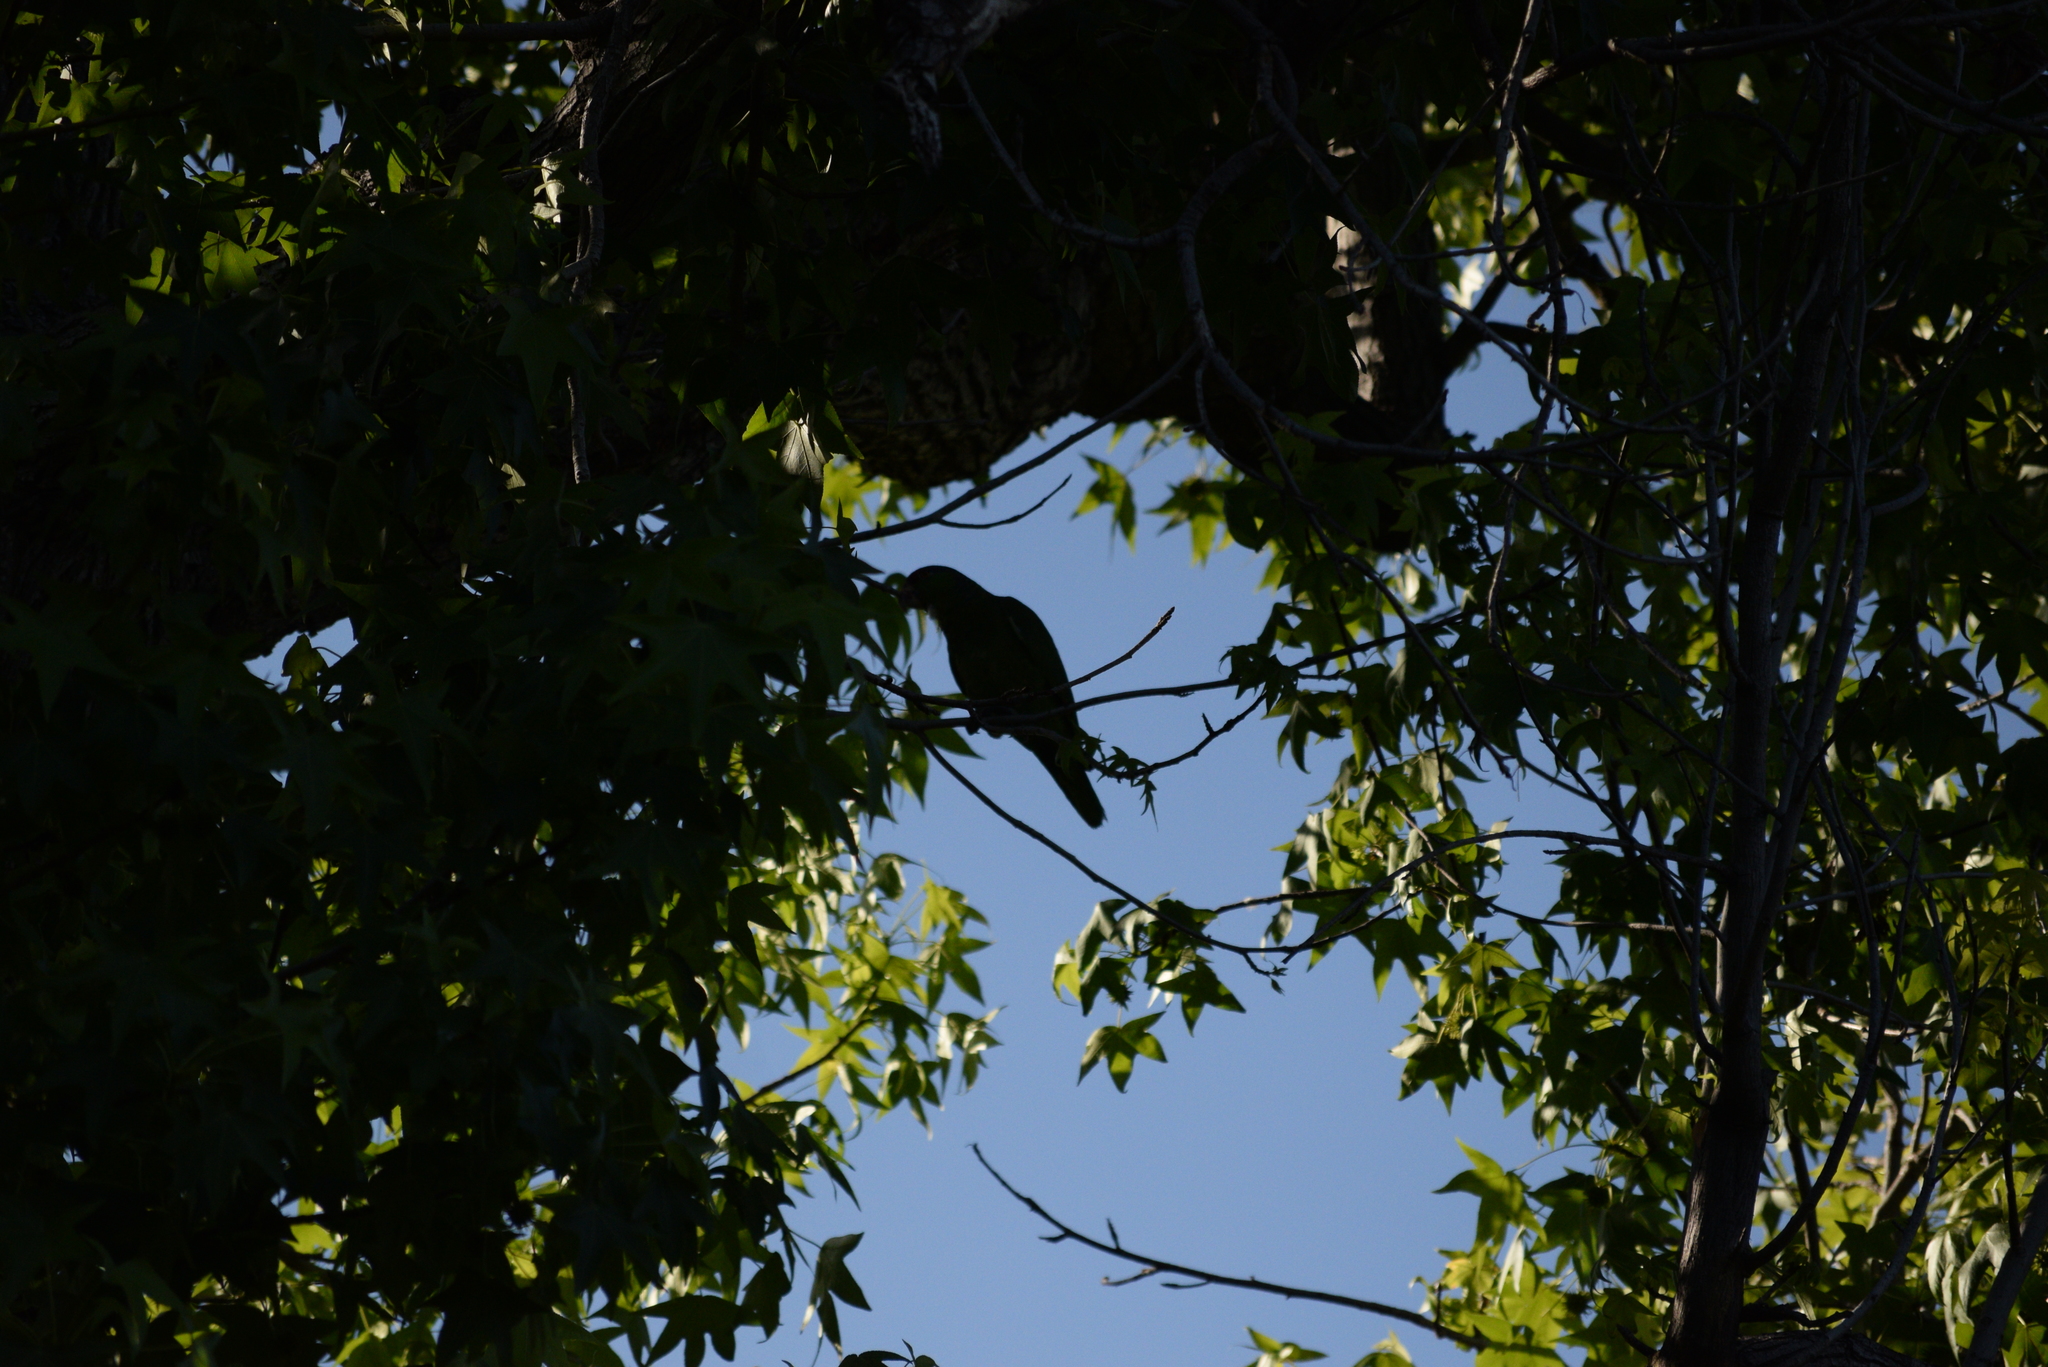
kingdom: Animalia
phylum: Chordata
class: Aves
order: Psittaciformes
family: Psittacidae
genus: Amazona
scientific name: Amazona viridigenalis
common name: Red-crowned amazon
